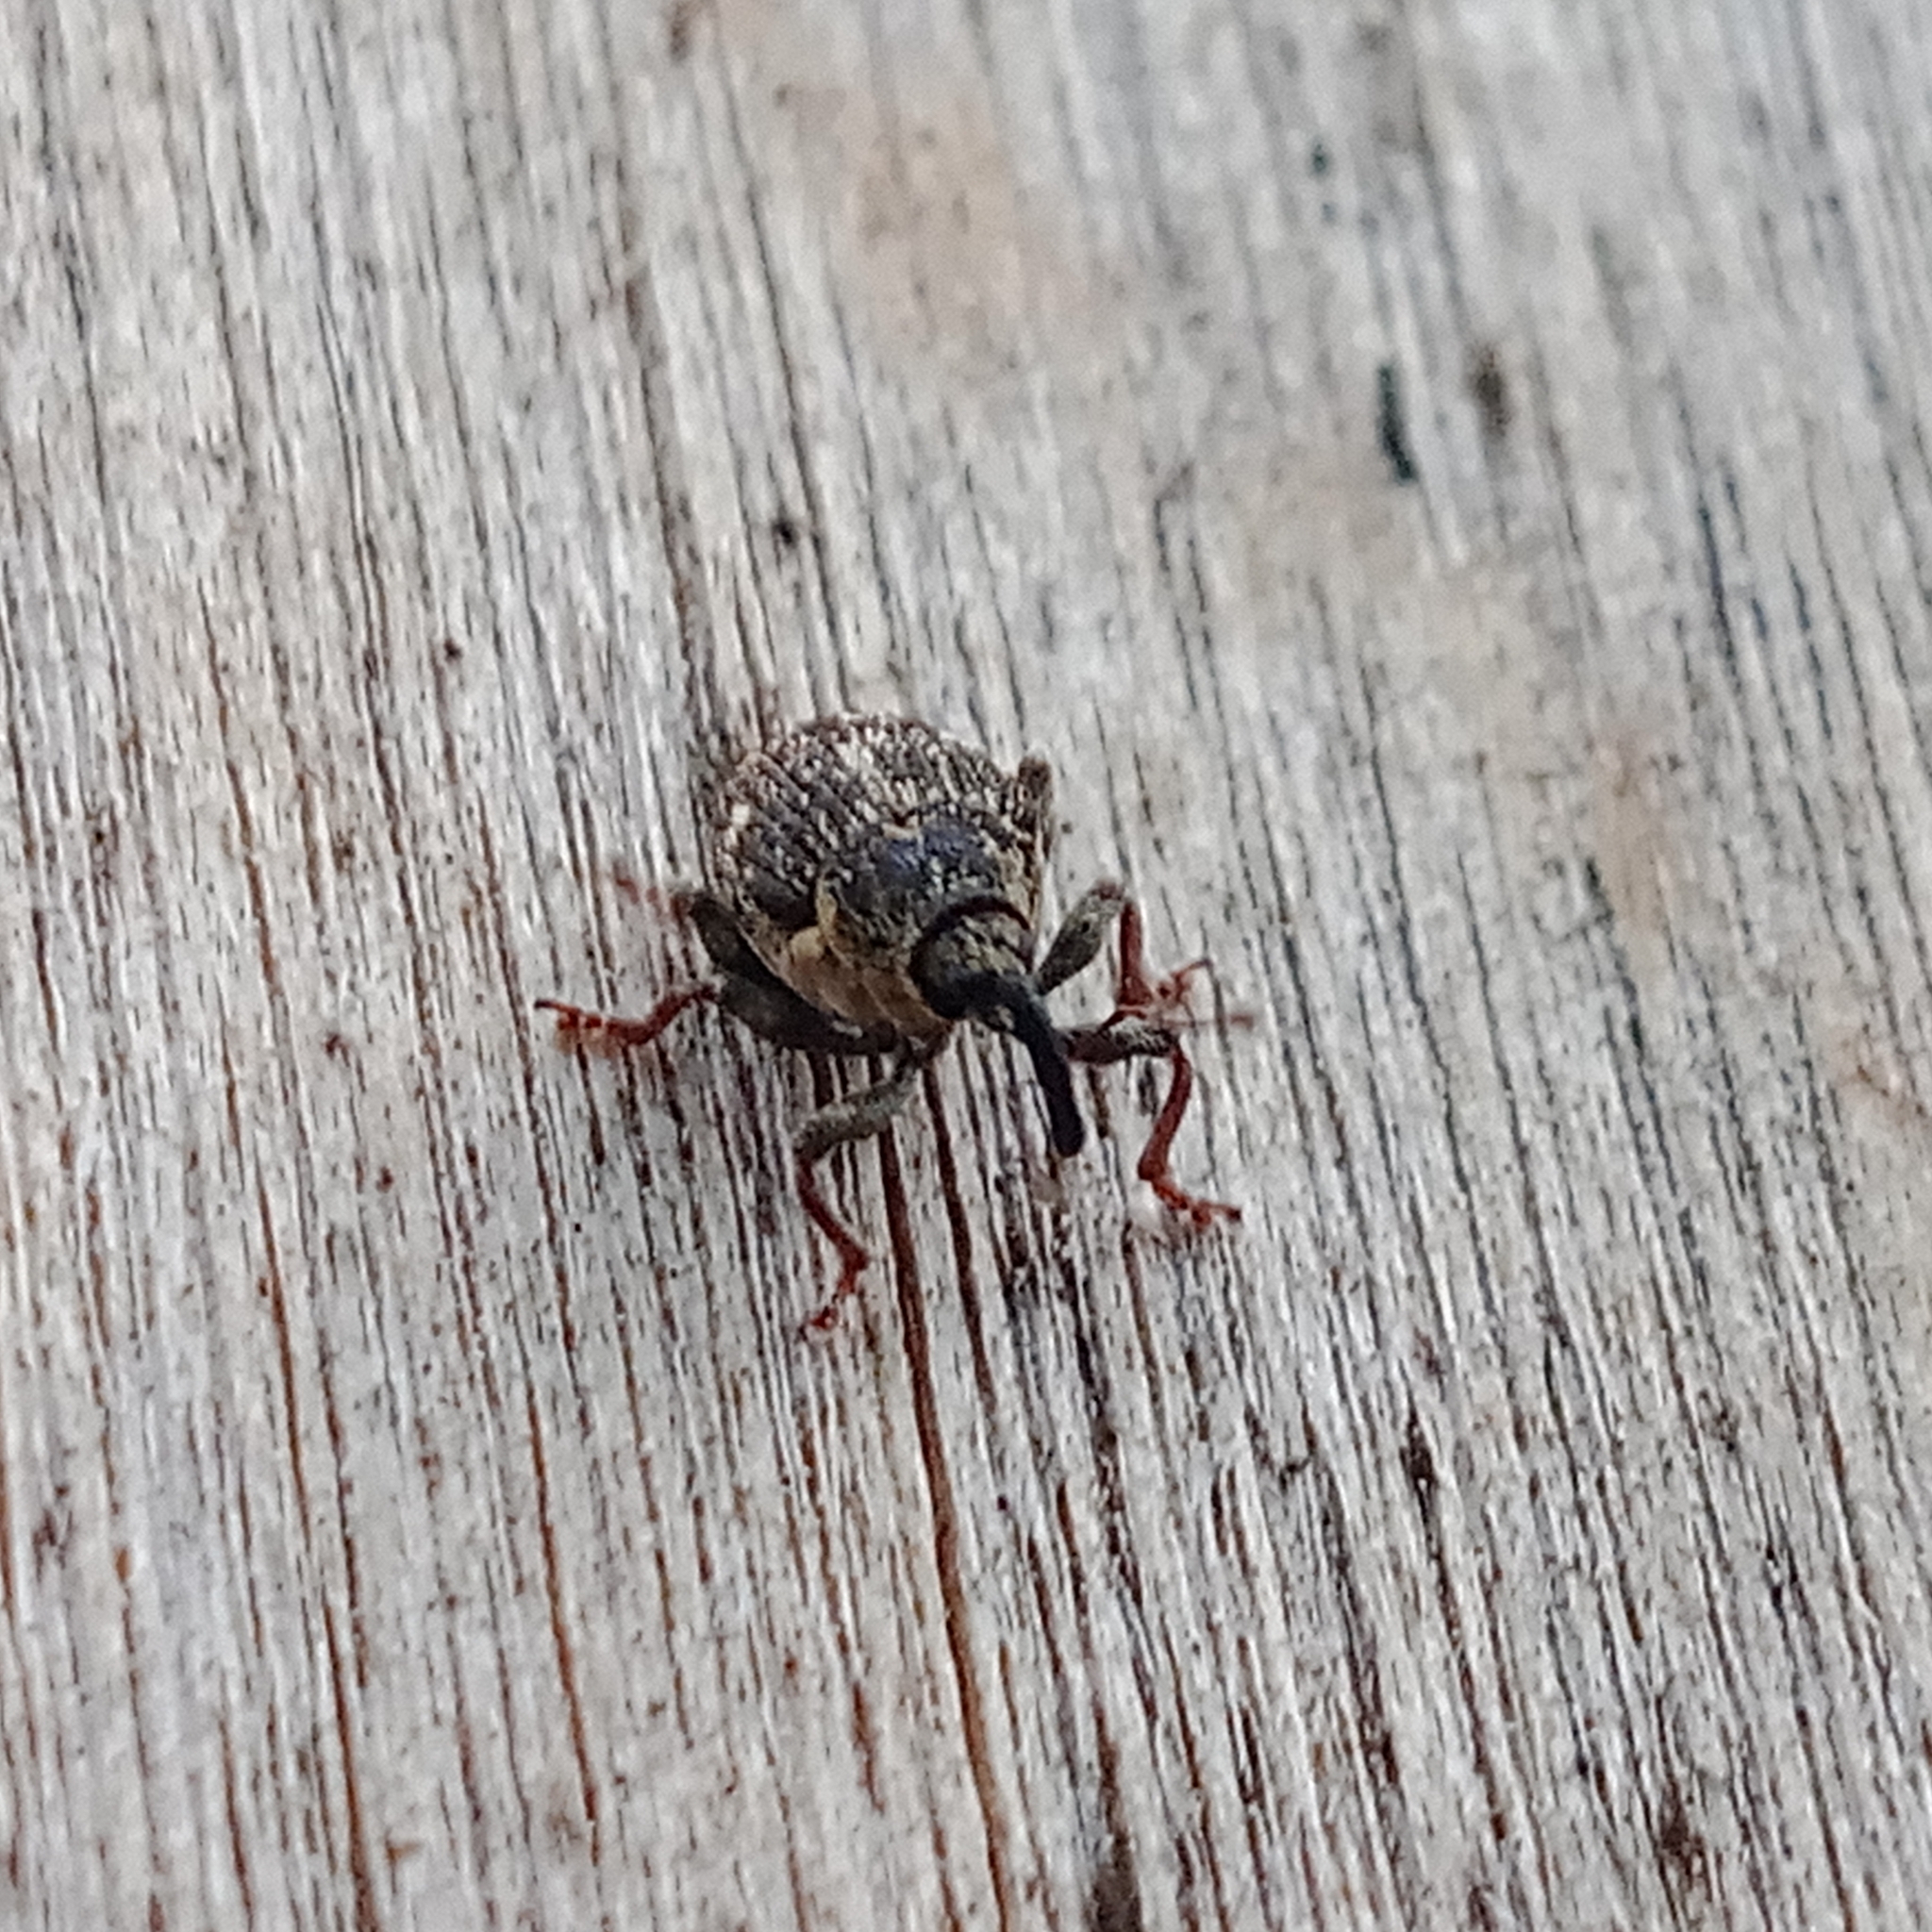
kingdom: Animalia
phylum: Arthropoda
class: Insecta
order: Coleoptera
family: Curculionidae
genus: Nedyus
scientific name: Nedyus quadrimaculatus
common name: Small nettle weevil
